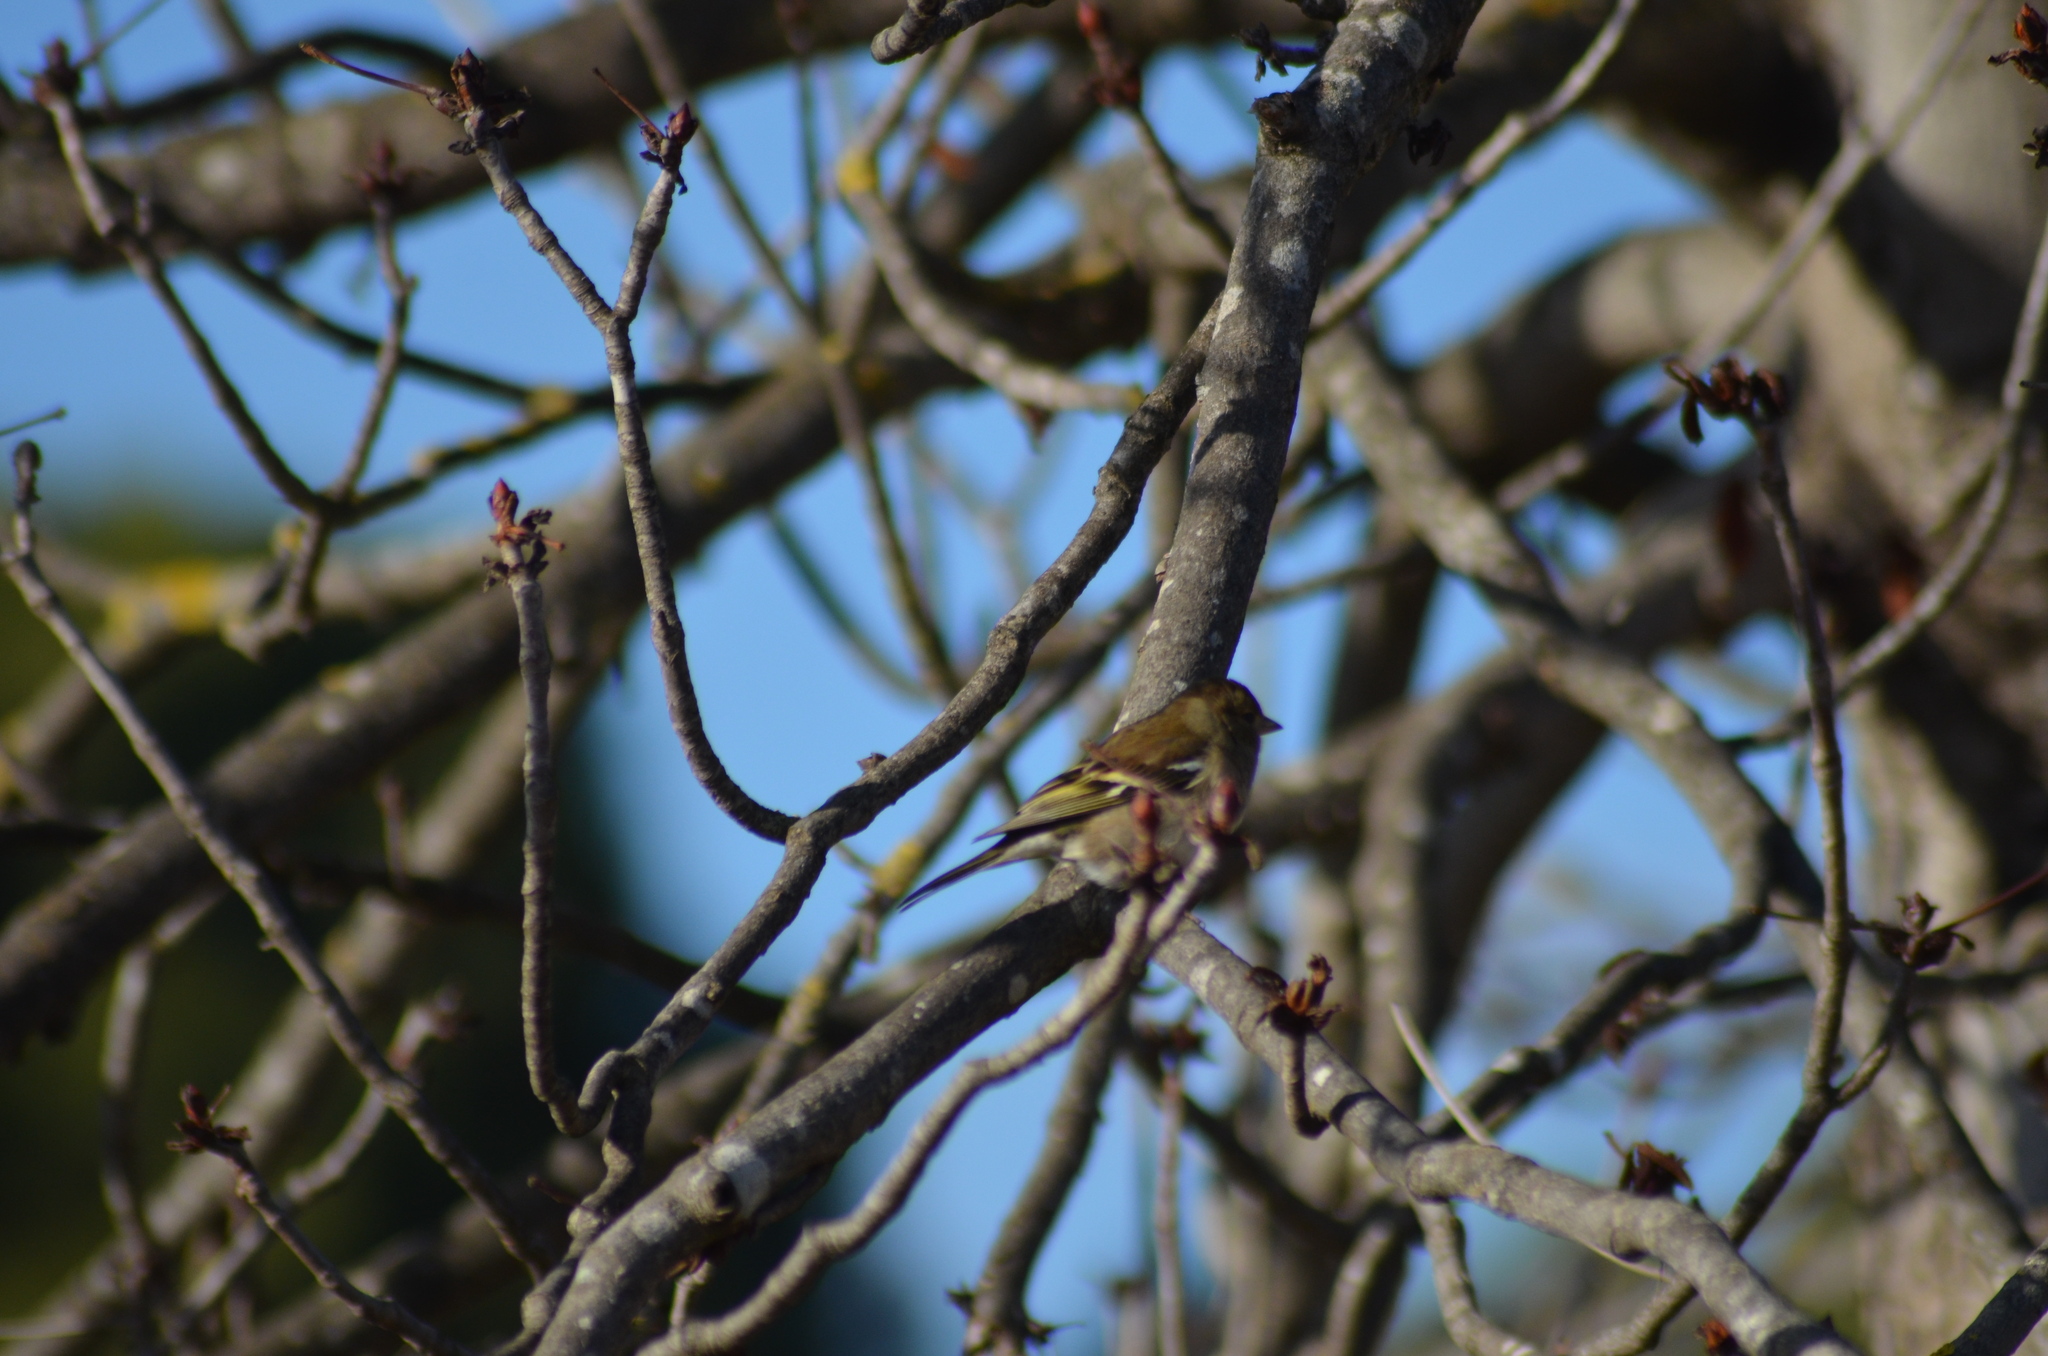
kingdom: Animalia
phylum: Chordata
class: Aves
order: Passeriformes
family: Fringillidae
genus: Fringilla
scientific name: Fringilla coelebs
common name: Common chaffinch
